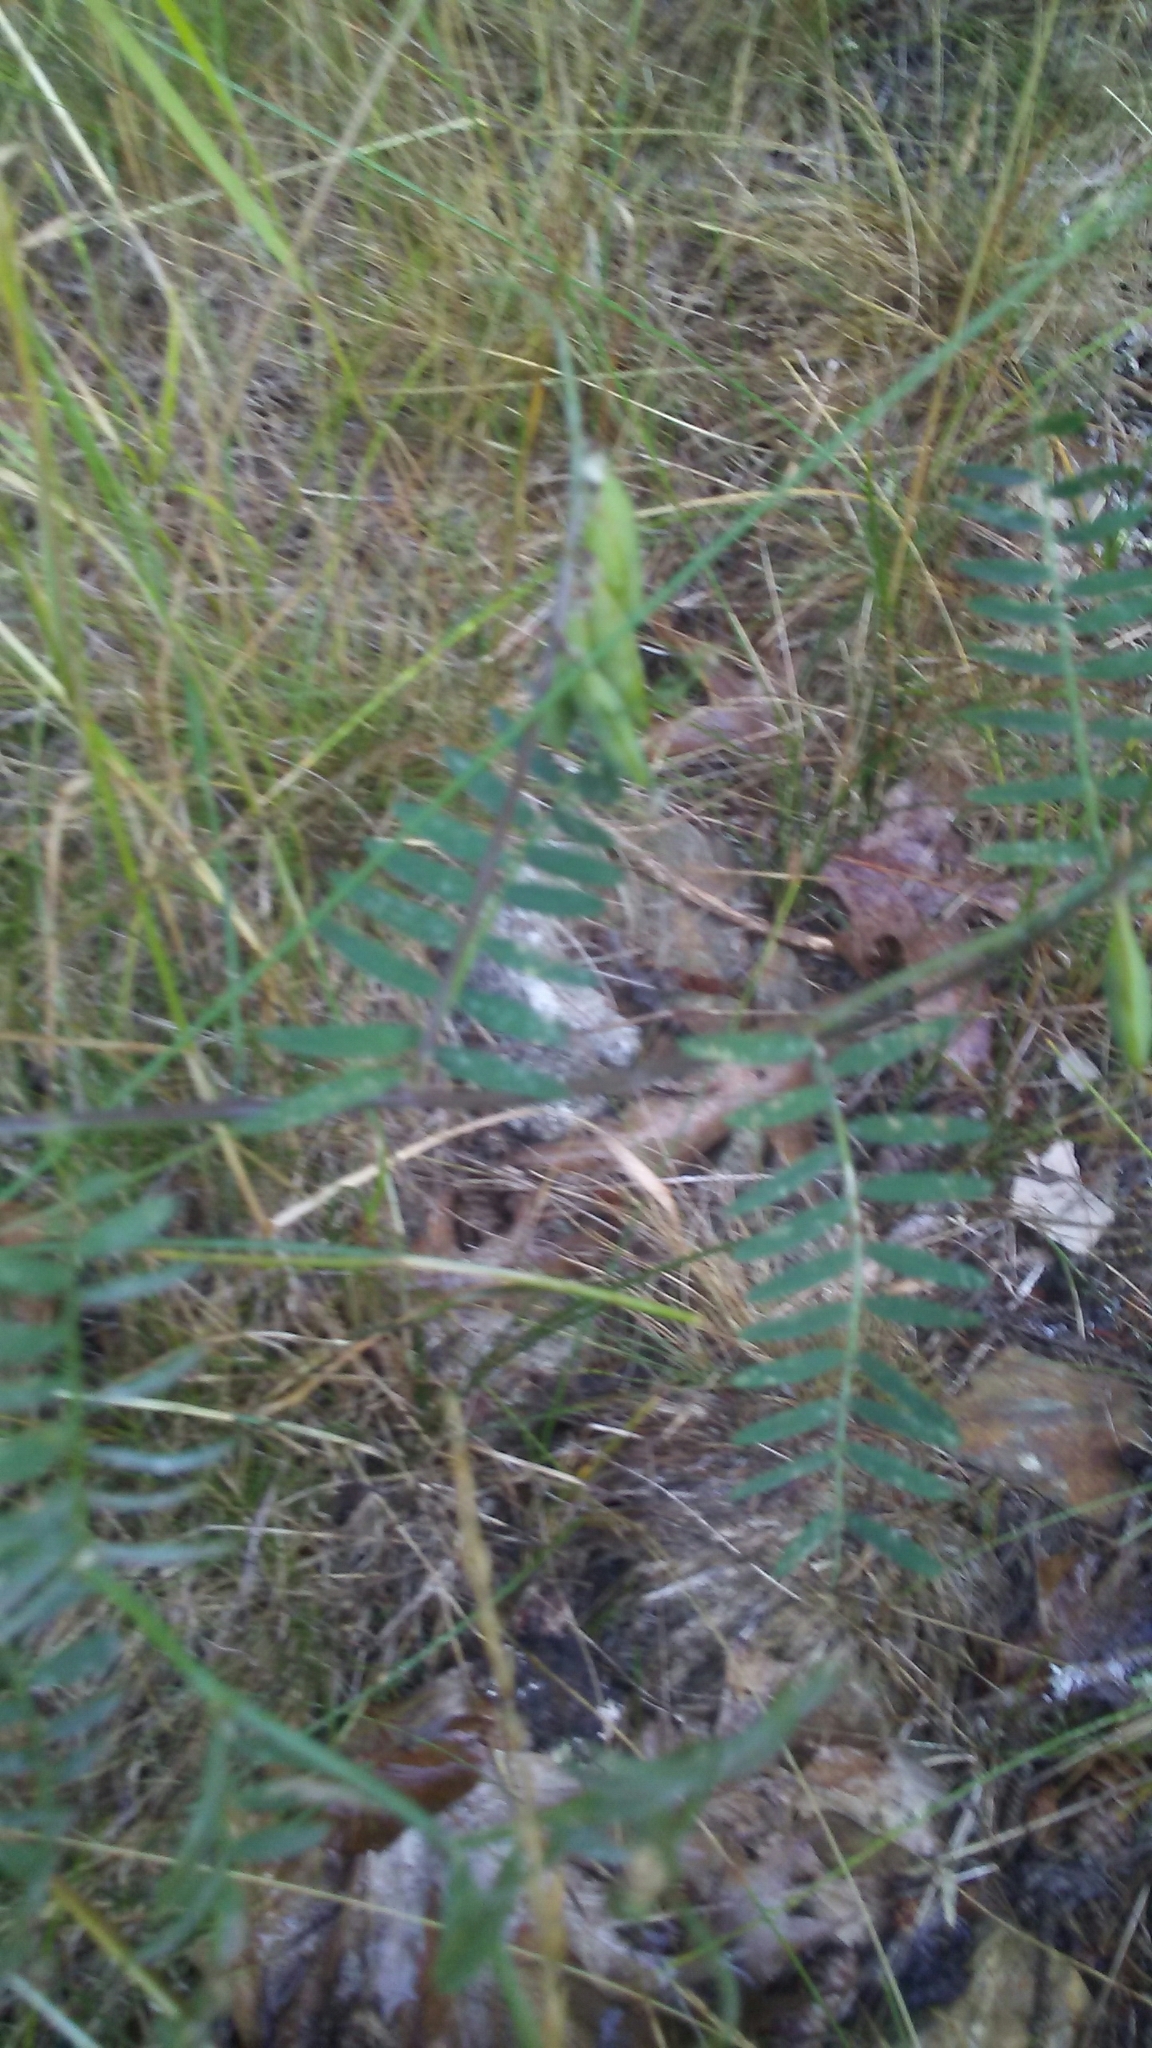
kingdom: Plantae
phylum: Tracheophyta
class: Magnoliopsida
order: Fabales
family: Fabaceae
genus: Vicia
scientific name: Vicia
